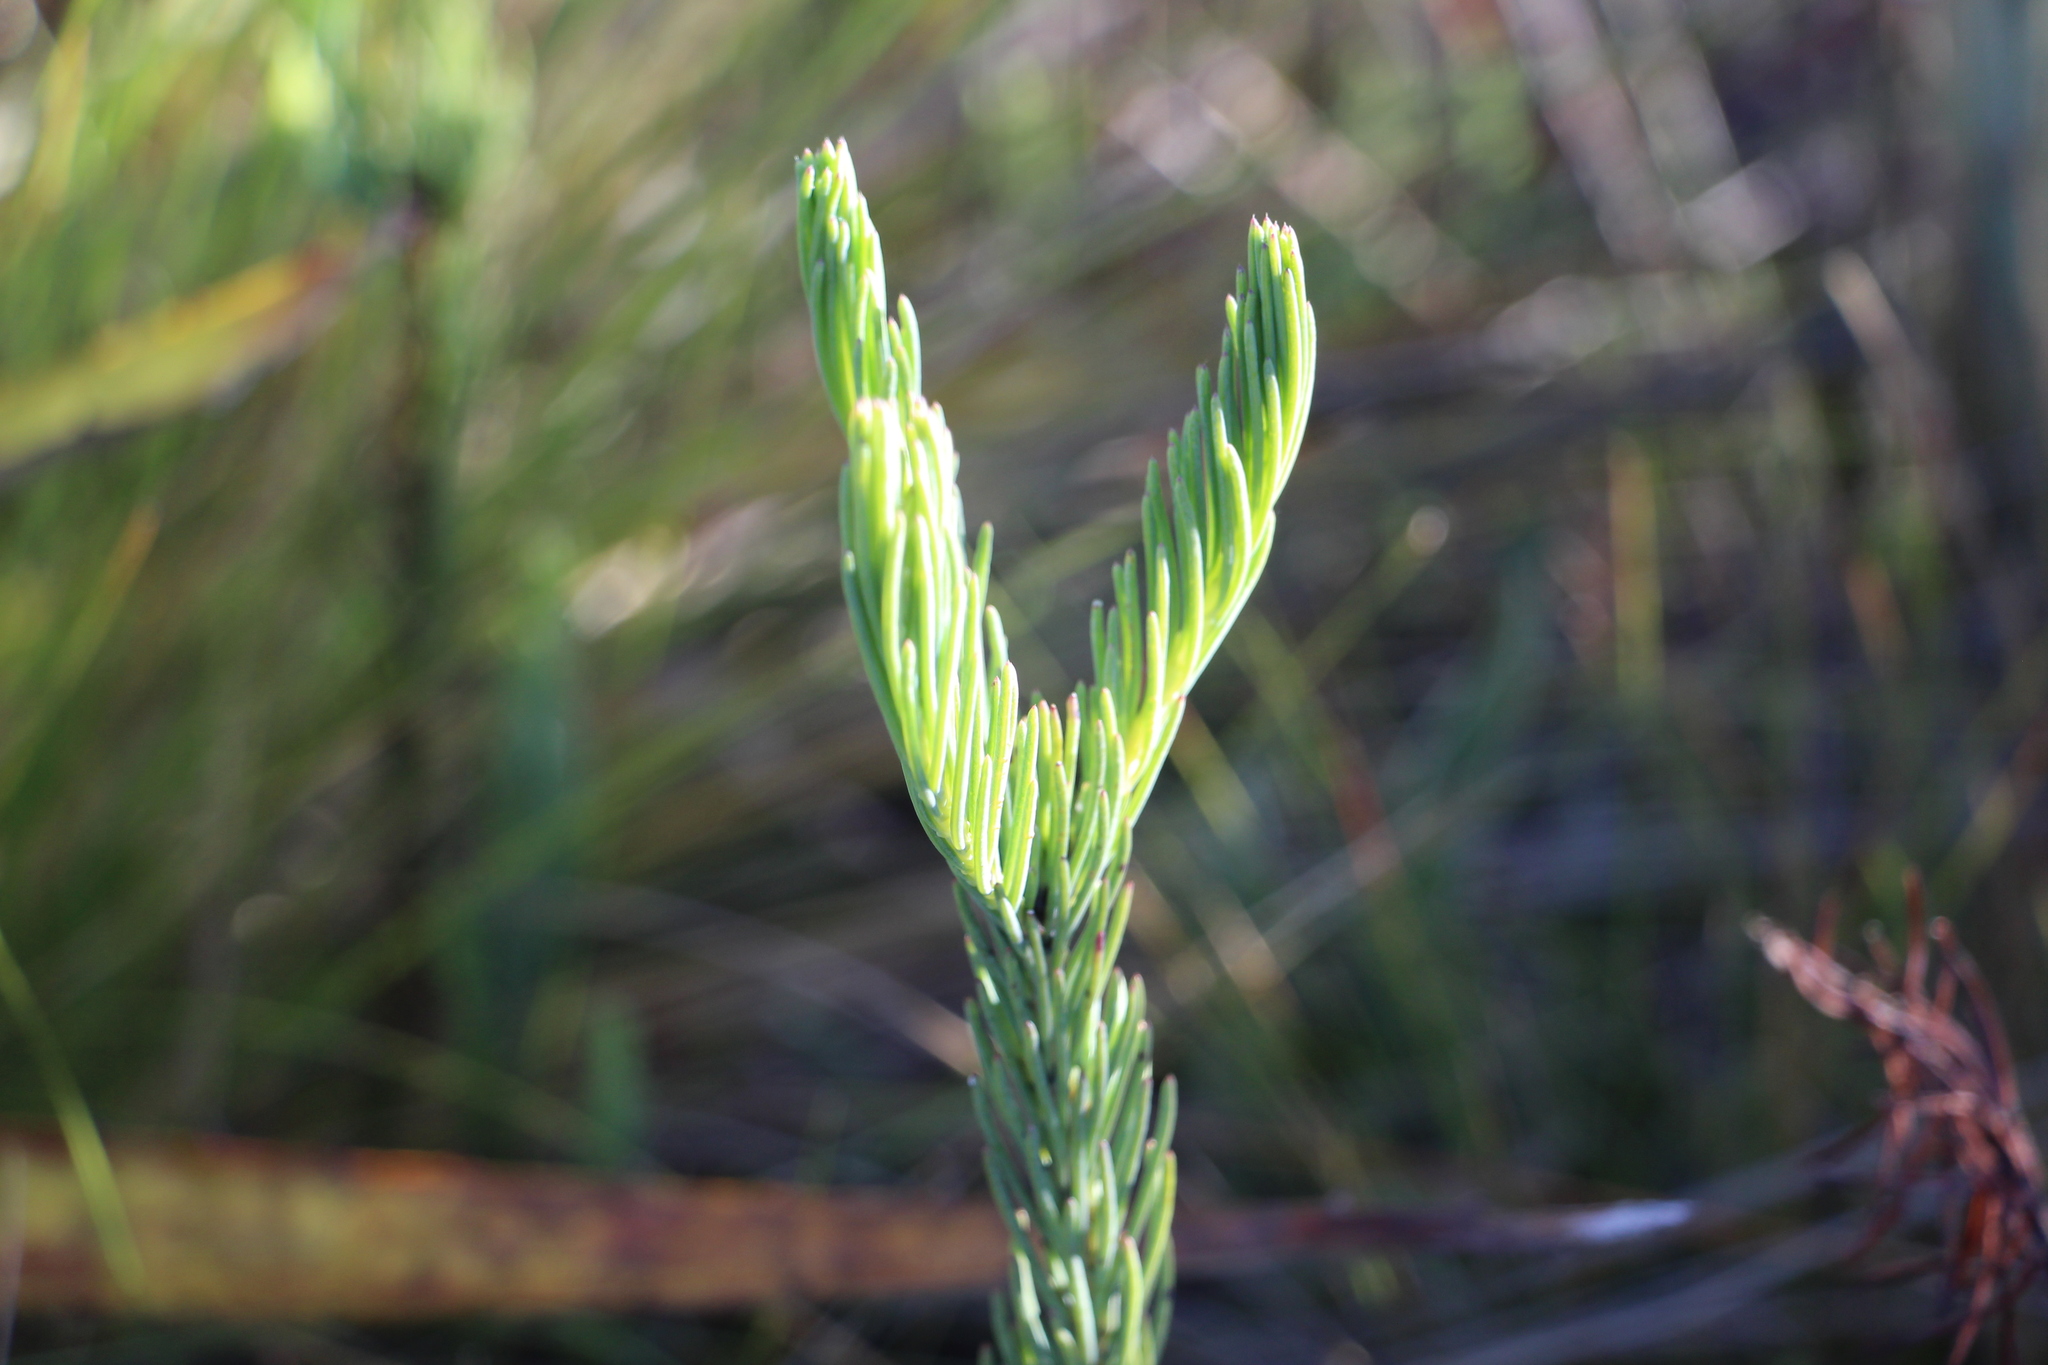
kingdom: Plantae
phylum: Tracheophyta
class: Magnoliopsida
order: Asterales
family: Asteraceae
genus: Monticalia
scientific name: Monticalia abietina
